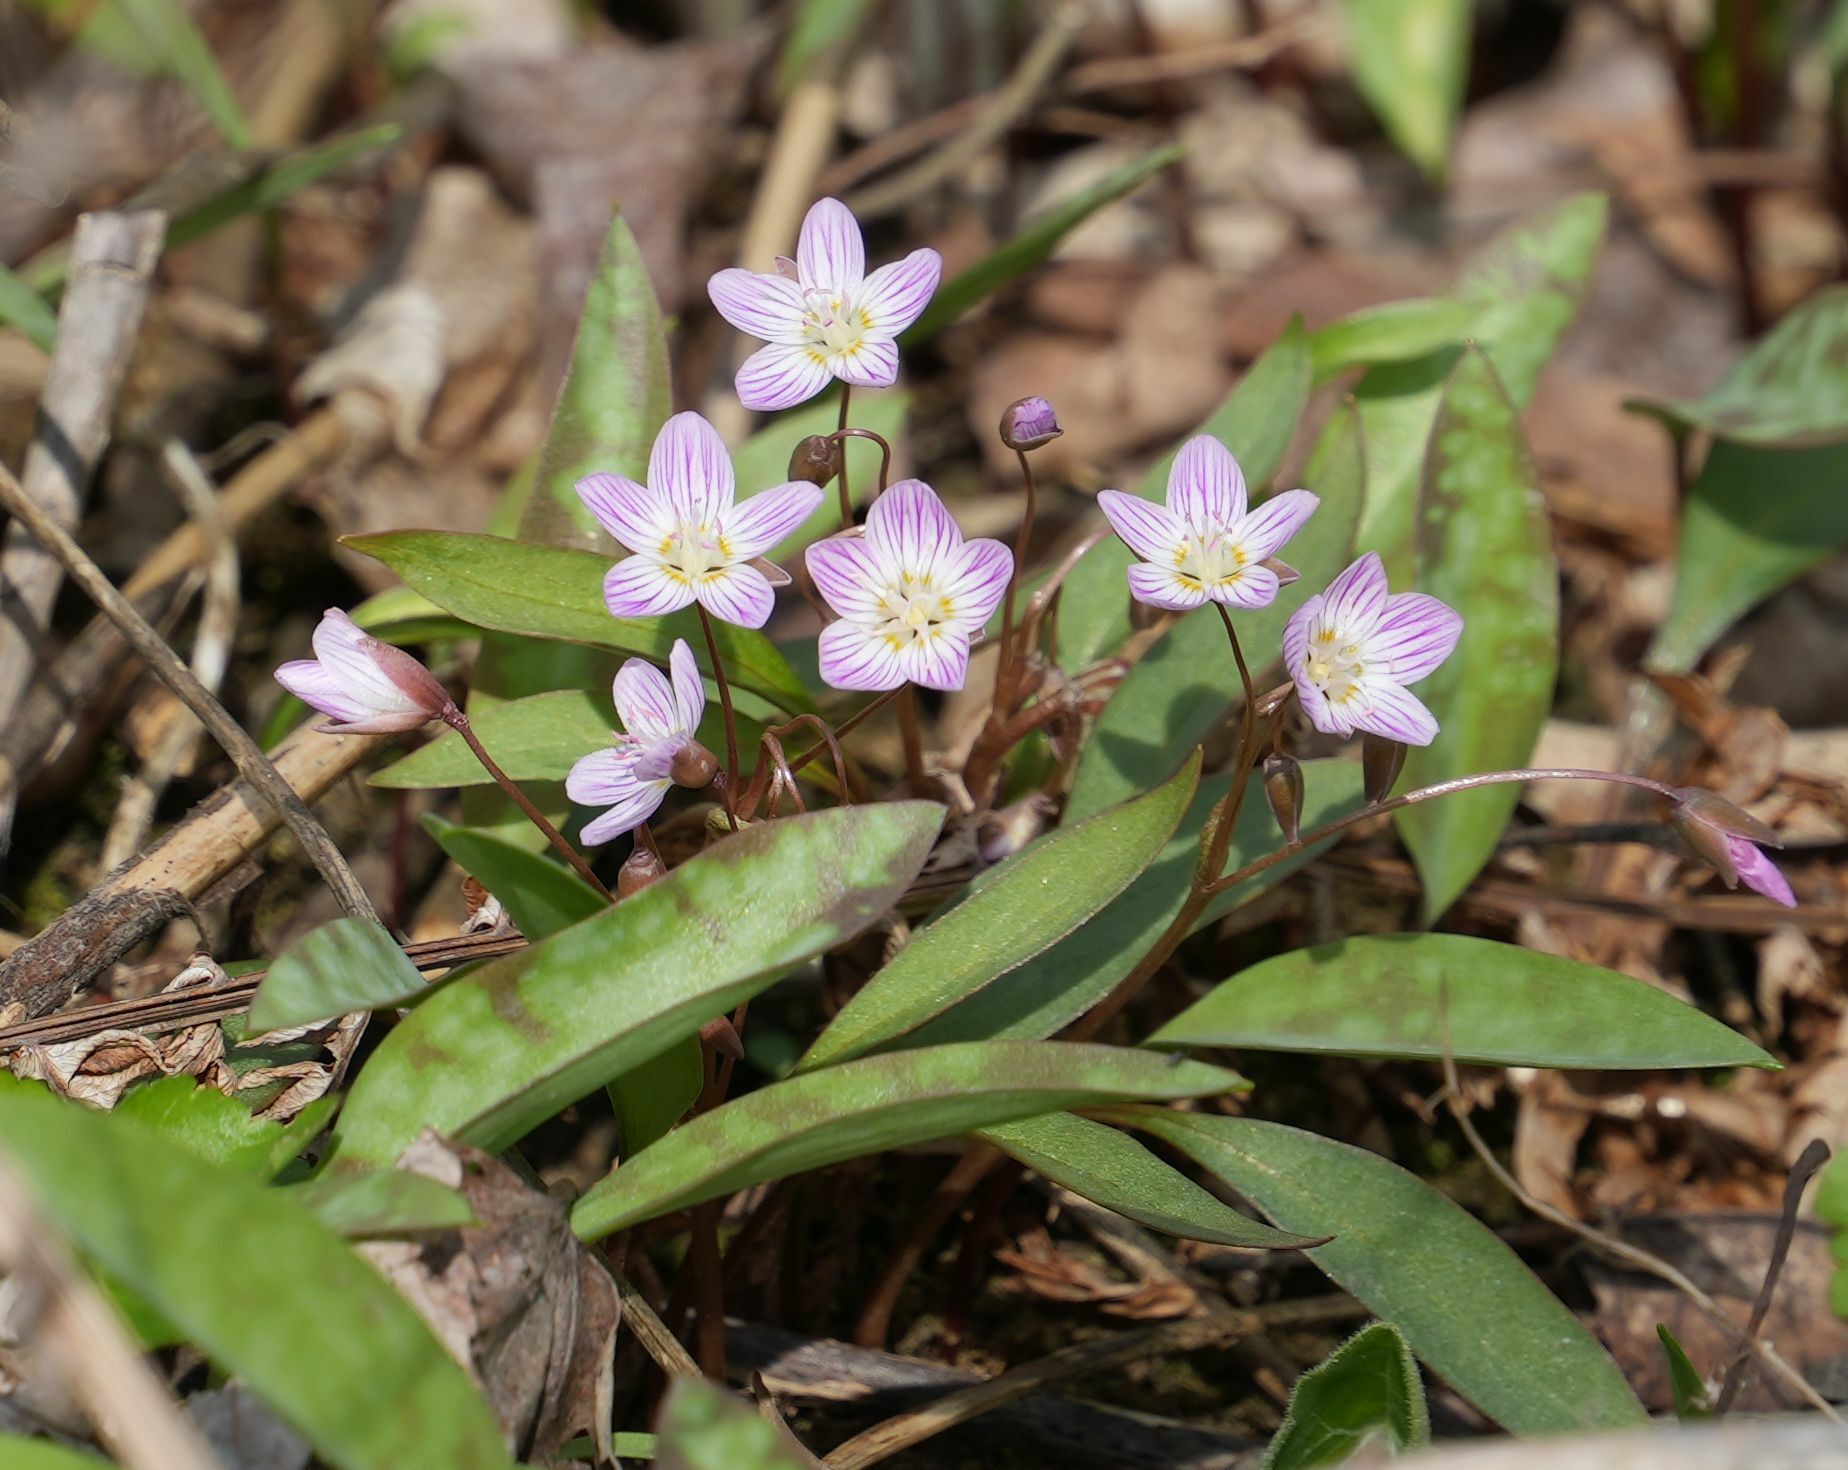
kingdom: Plantae
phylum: Tracheophyta
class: Magnoliopsida
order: Caryophyllales
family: Montiaceae
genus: Claytonia
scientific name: Claytonia caroliniana
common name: Carolina spring beauty
